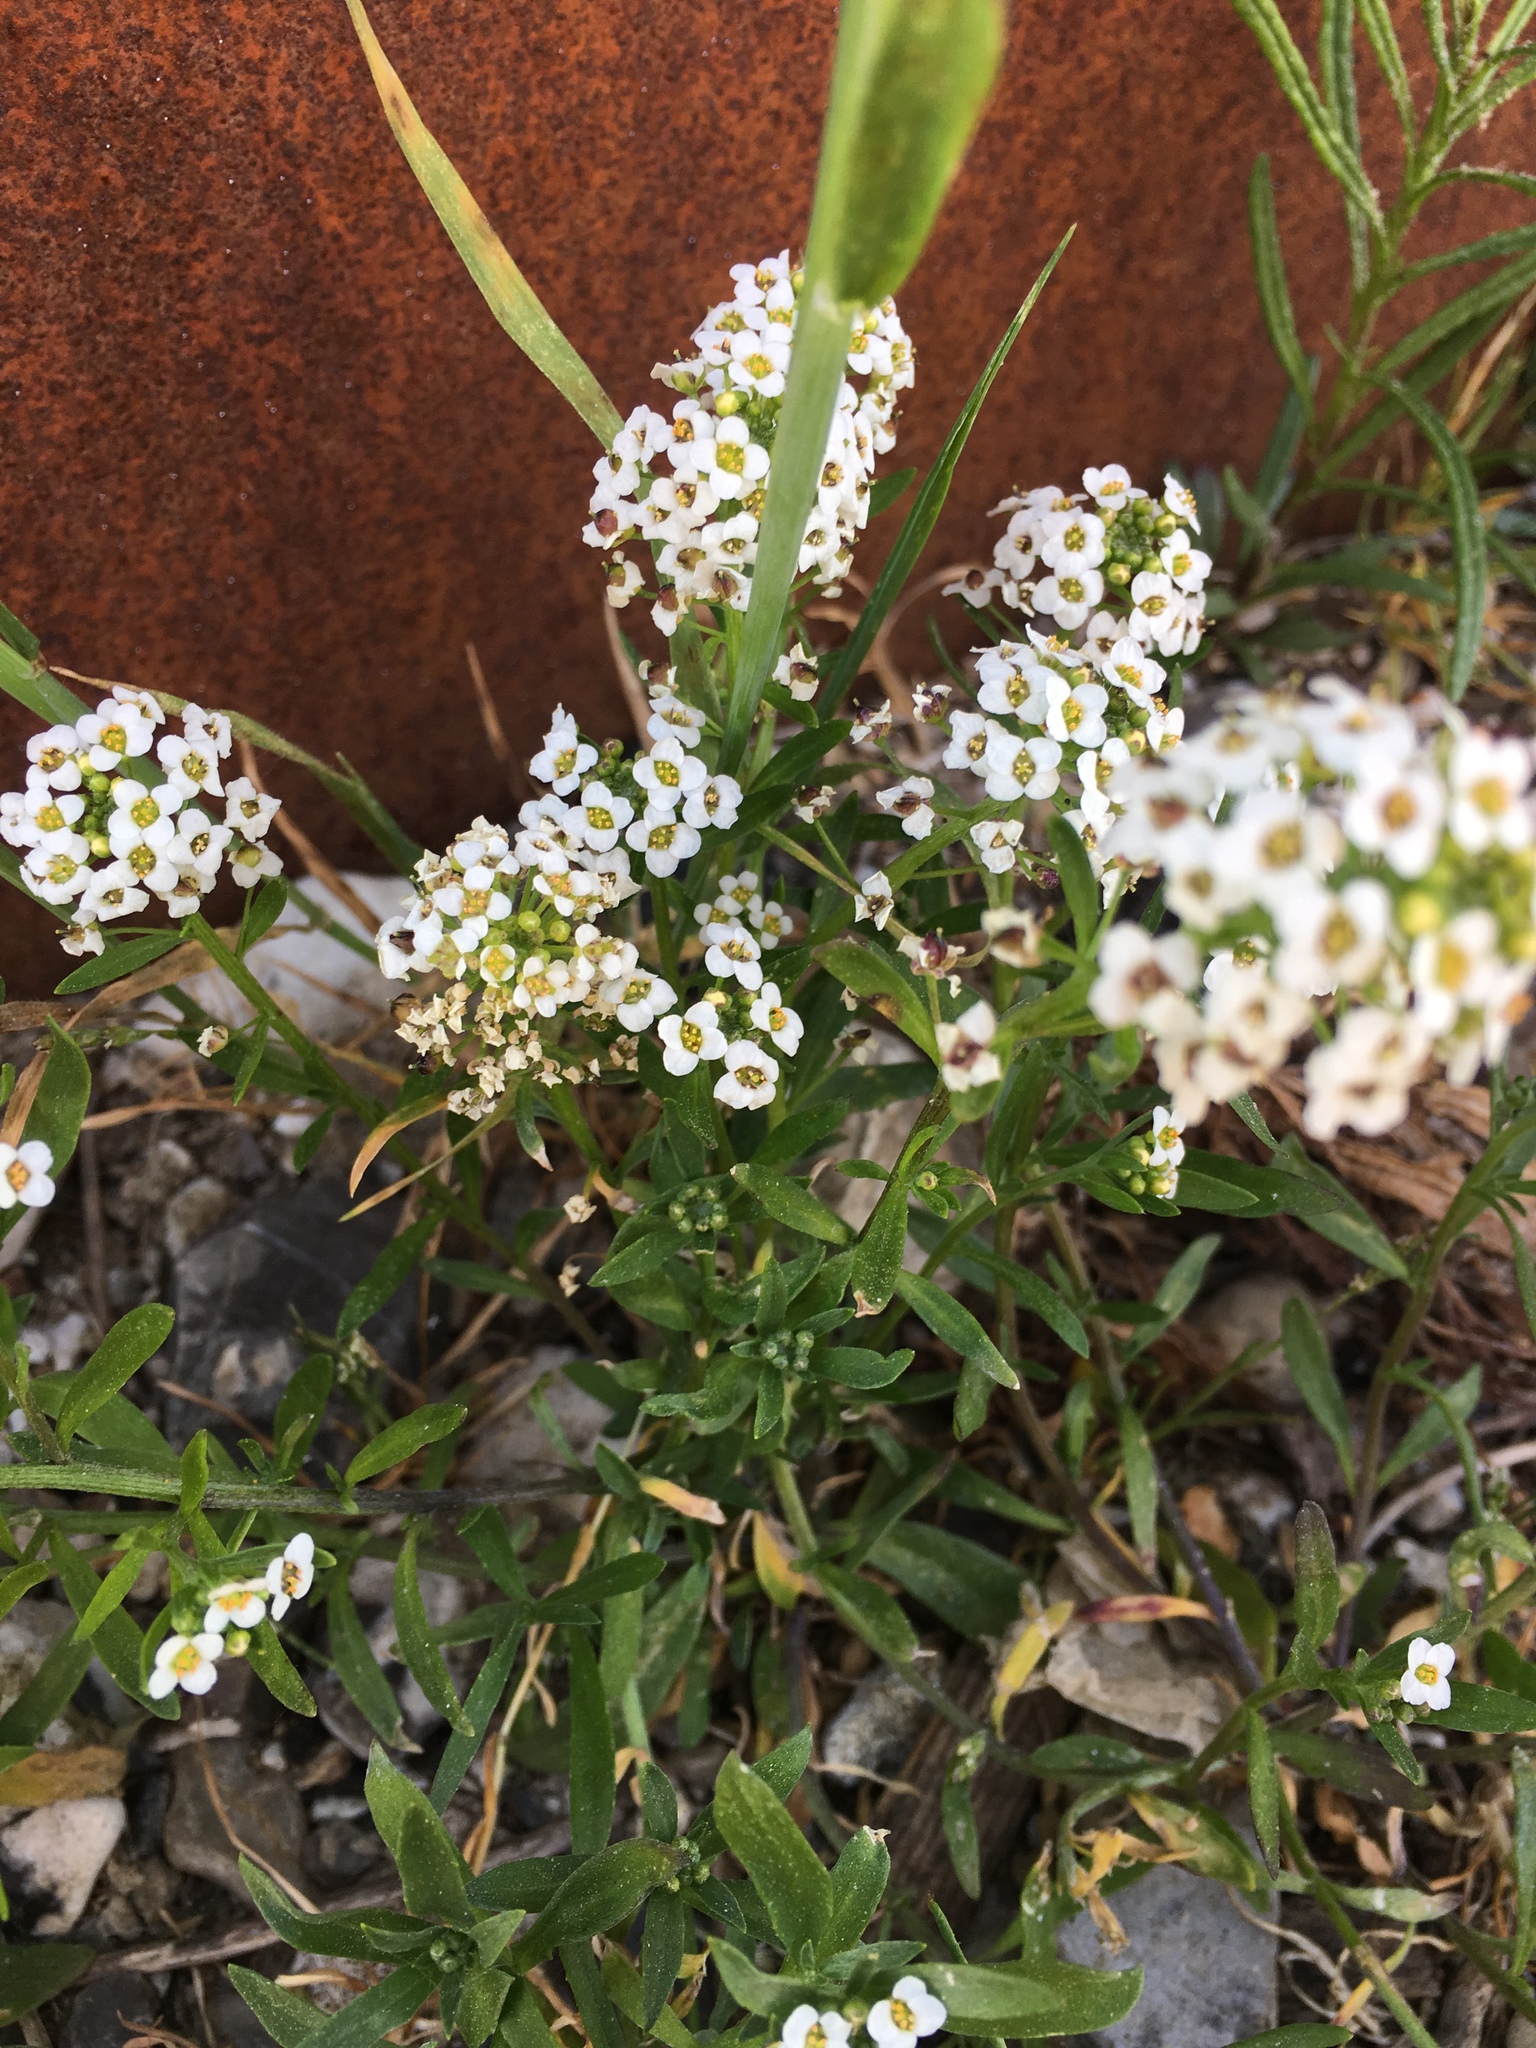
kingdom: Plantae
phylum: Tracheophyta
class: Magnoliopsida
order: Brassicales
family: Brassicaceae
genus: Lobularia
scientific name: Lobularia maritima
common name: Sweet alison
